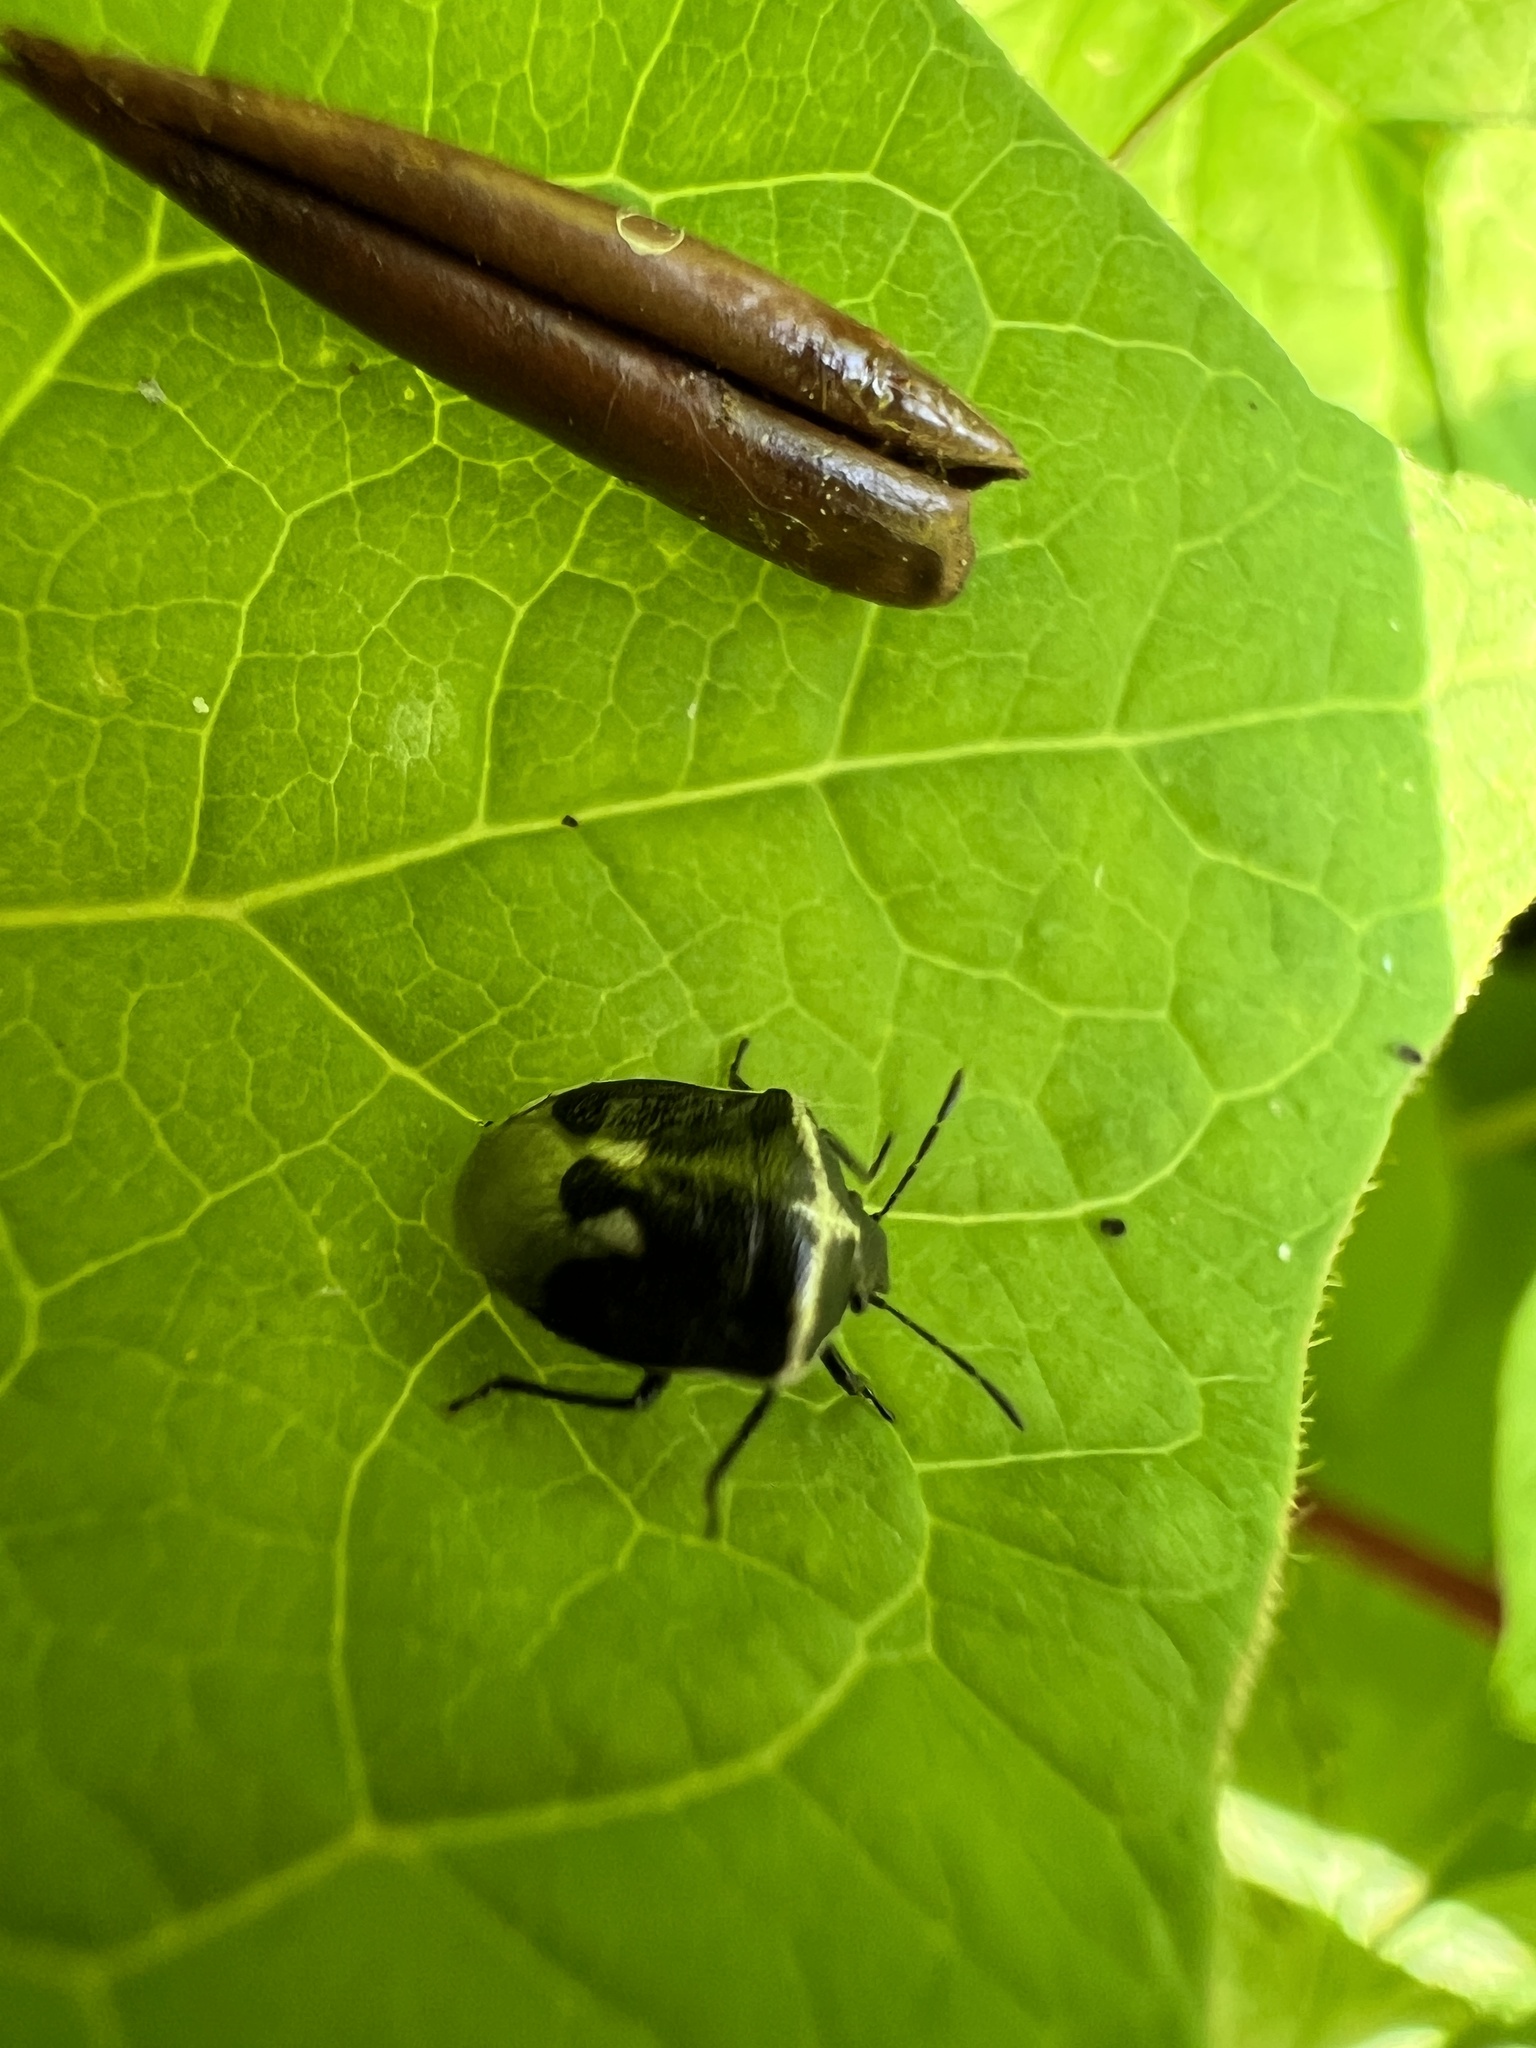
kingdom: Animalia
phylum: Arthropoda
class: Insecta
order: Hemiptera
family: Pentatomidae
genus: Cosmopepla
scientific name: Cosmopepla lintneriana
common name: Twice-stabbed stink bug
